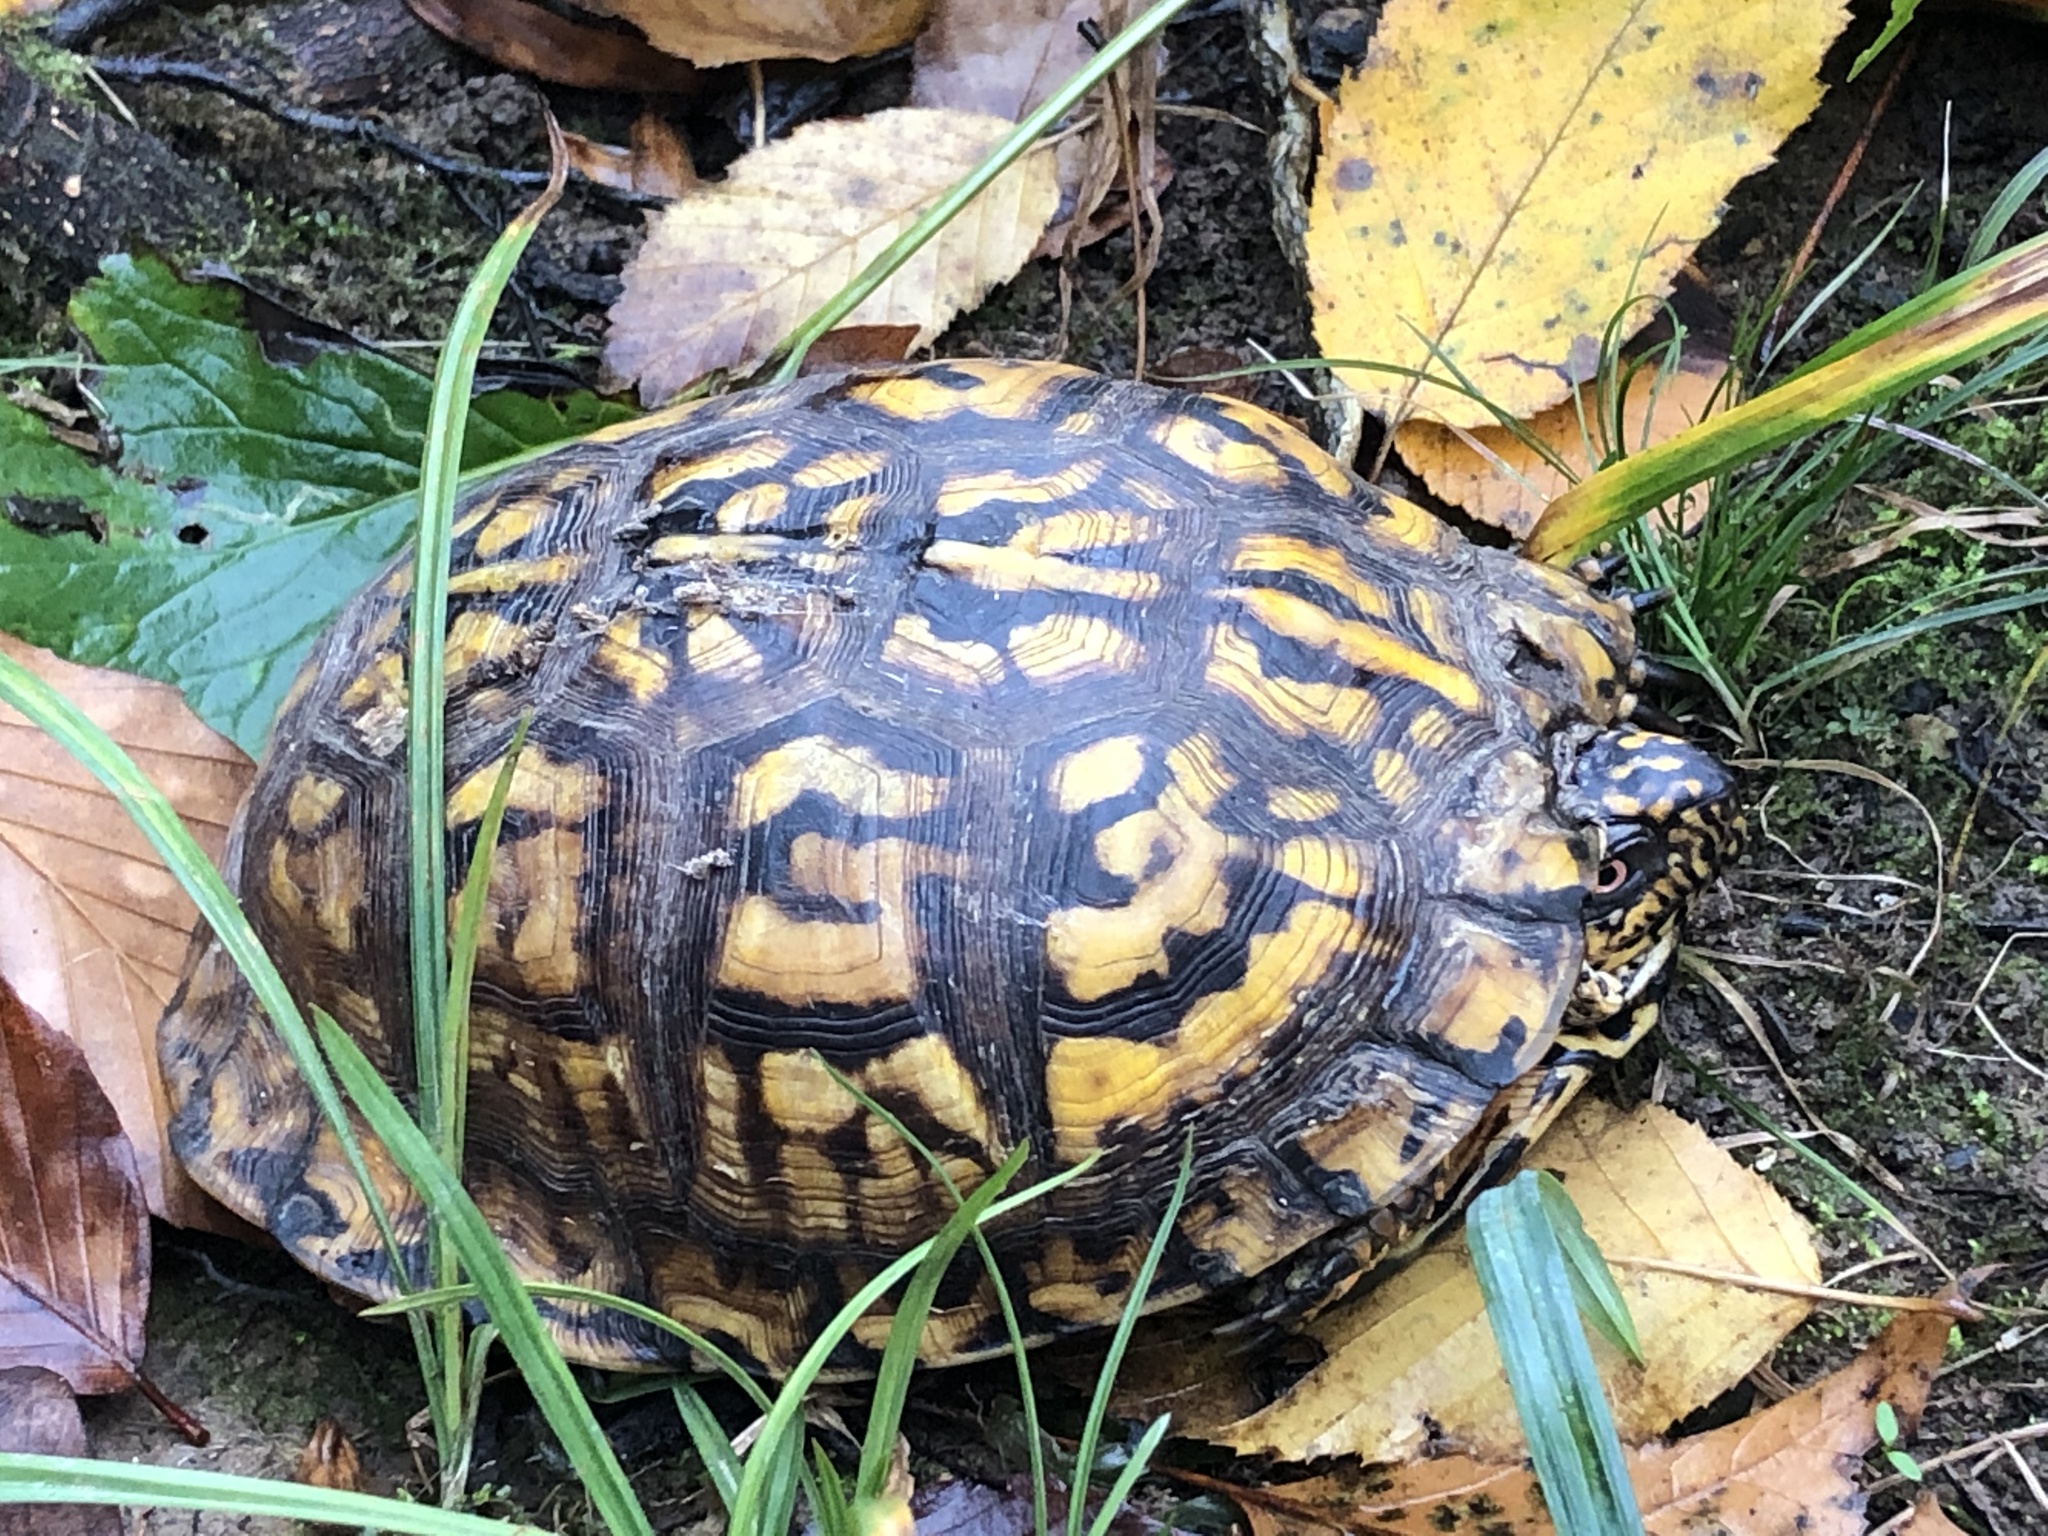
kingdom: Animalia
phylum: Chordata
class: Testudines
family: Emydidae
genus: Terrapene
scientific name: Terrapene carolina
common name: Common box turtle
